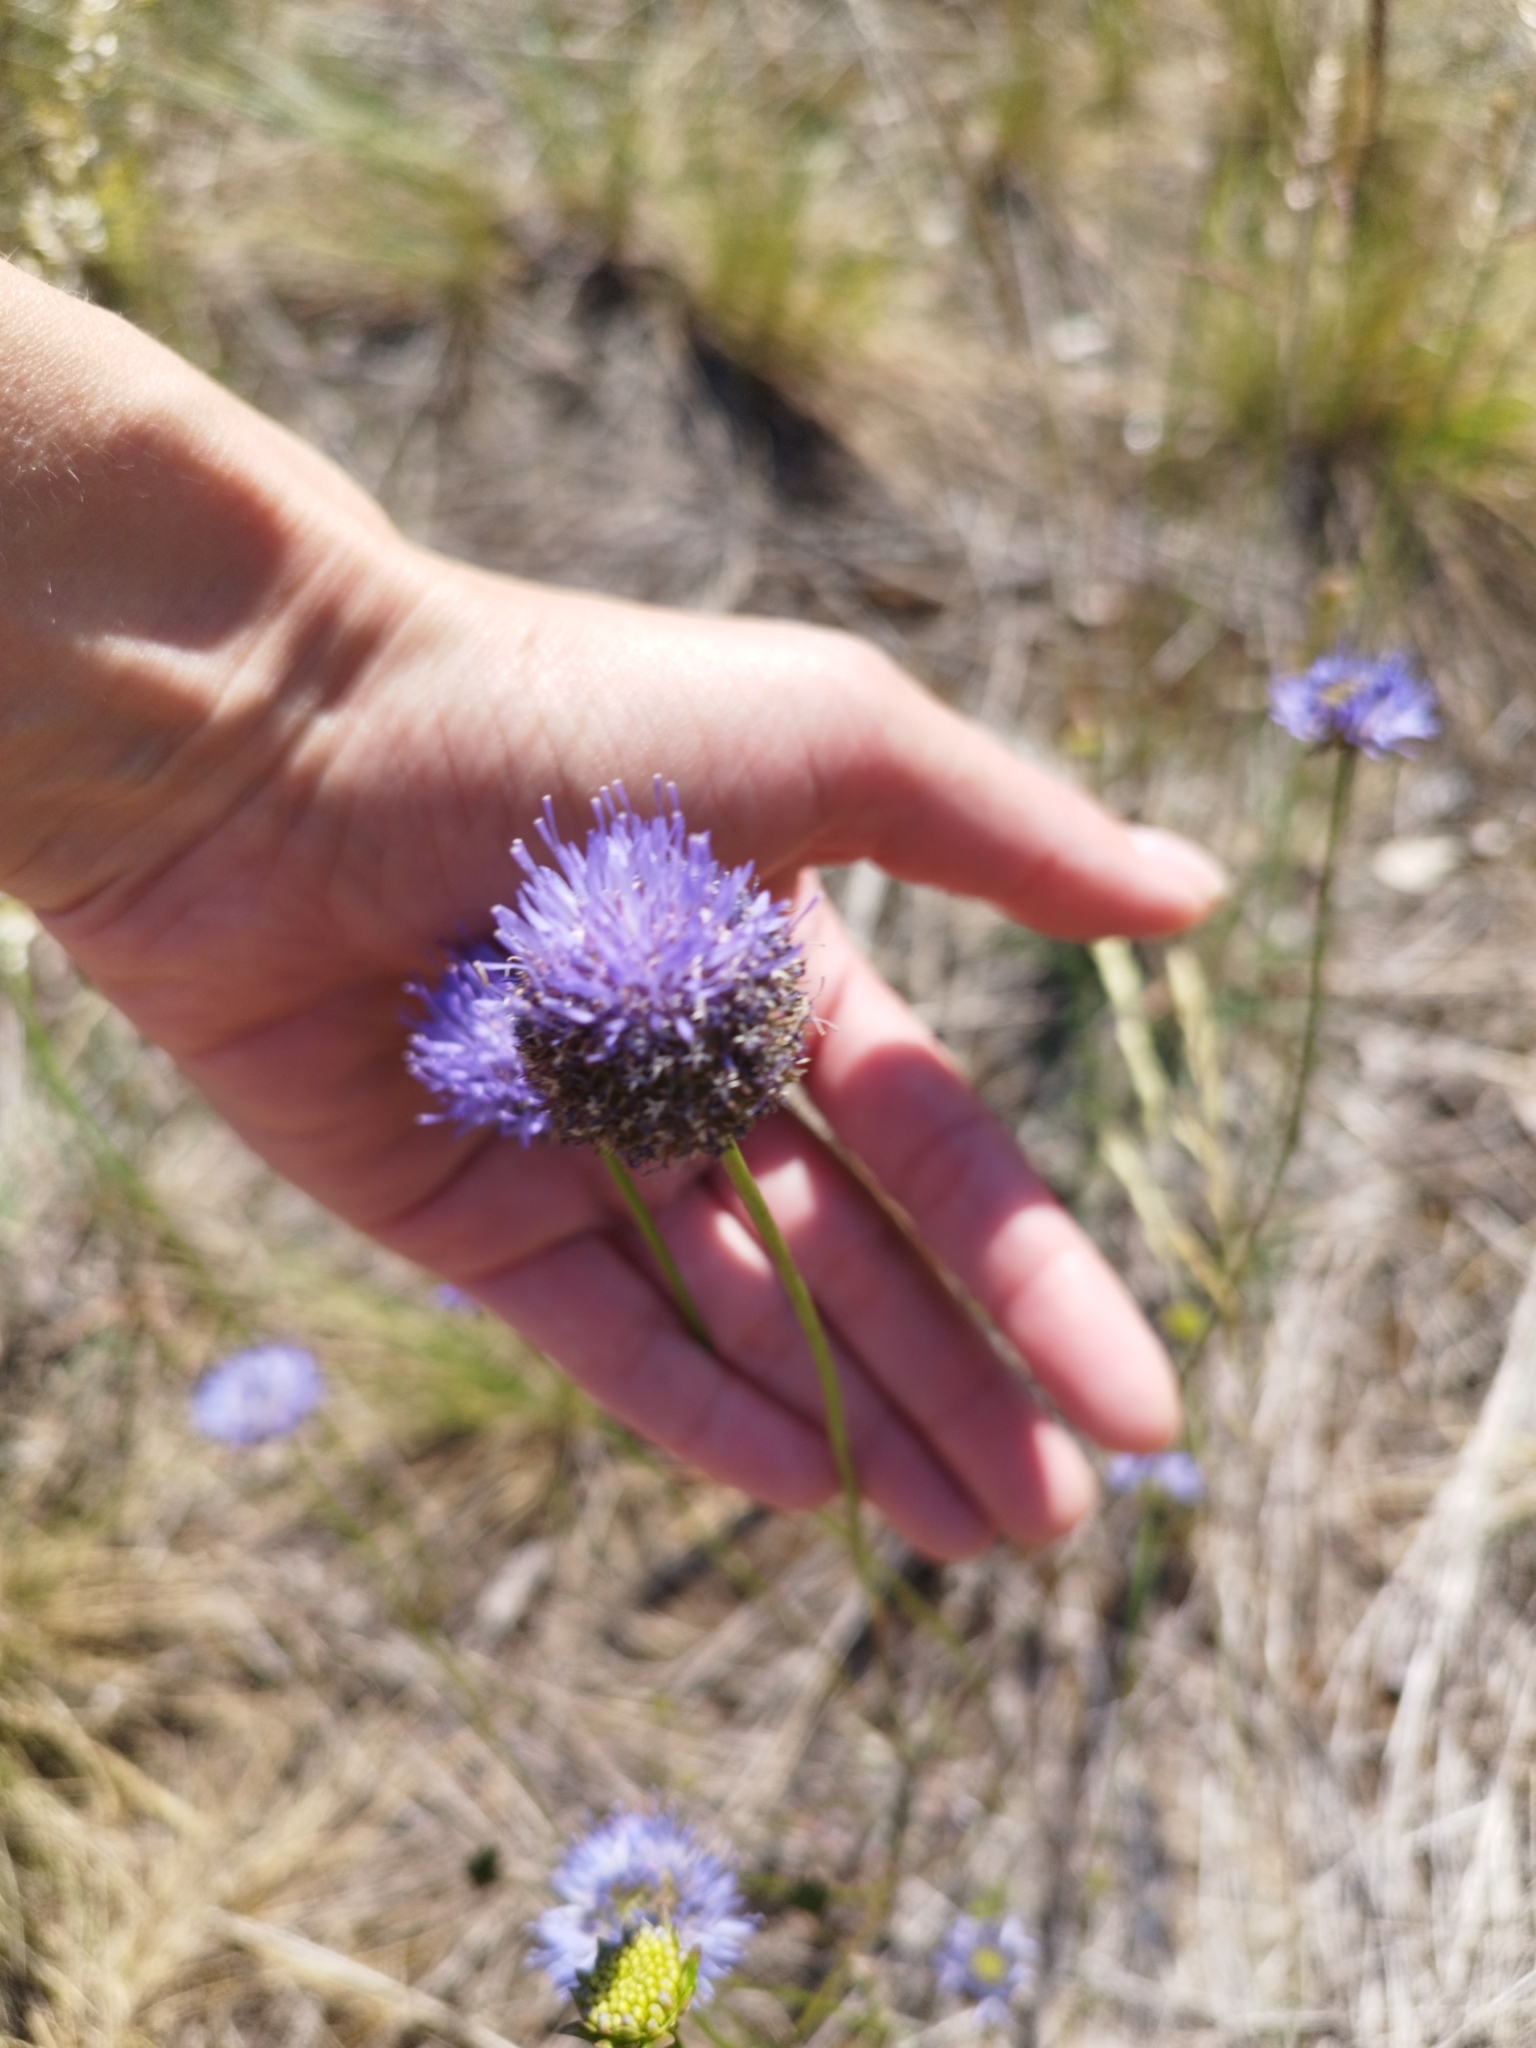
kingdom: Plantae
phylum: Tracheophyta
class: Magnoliopsida
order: Asterales
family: Campanulaceae
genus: Jasione
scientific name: Jasione montana
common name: Sheep's-bit
